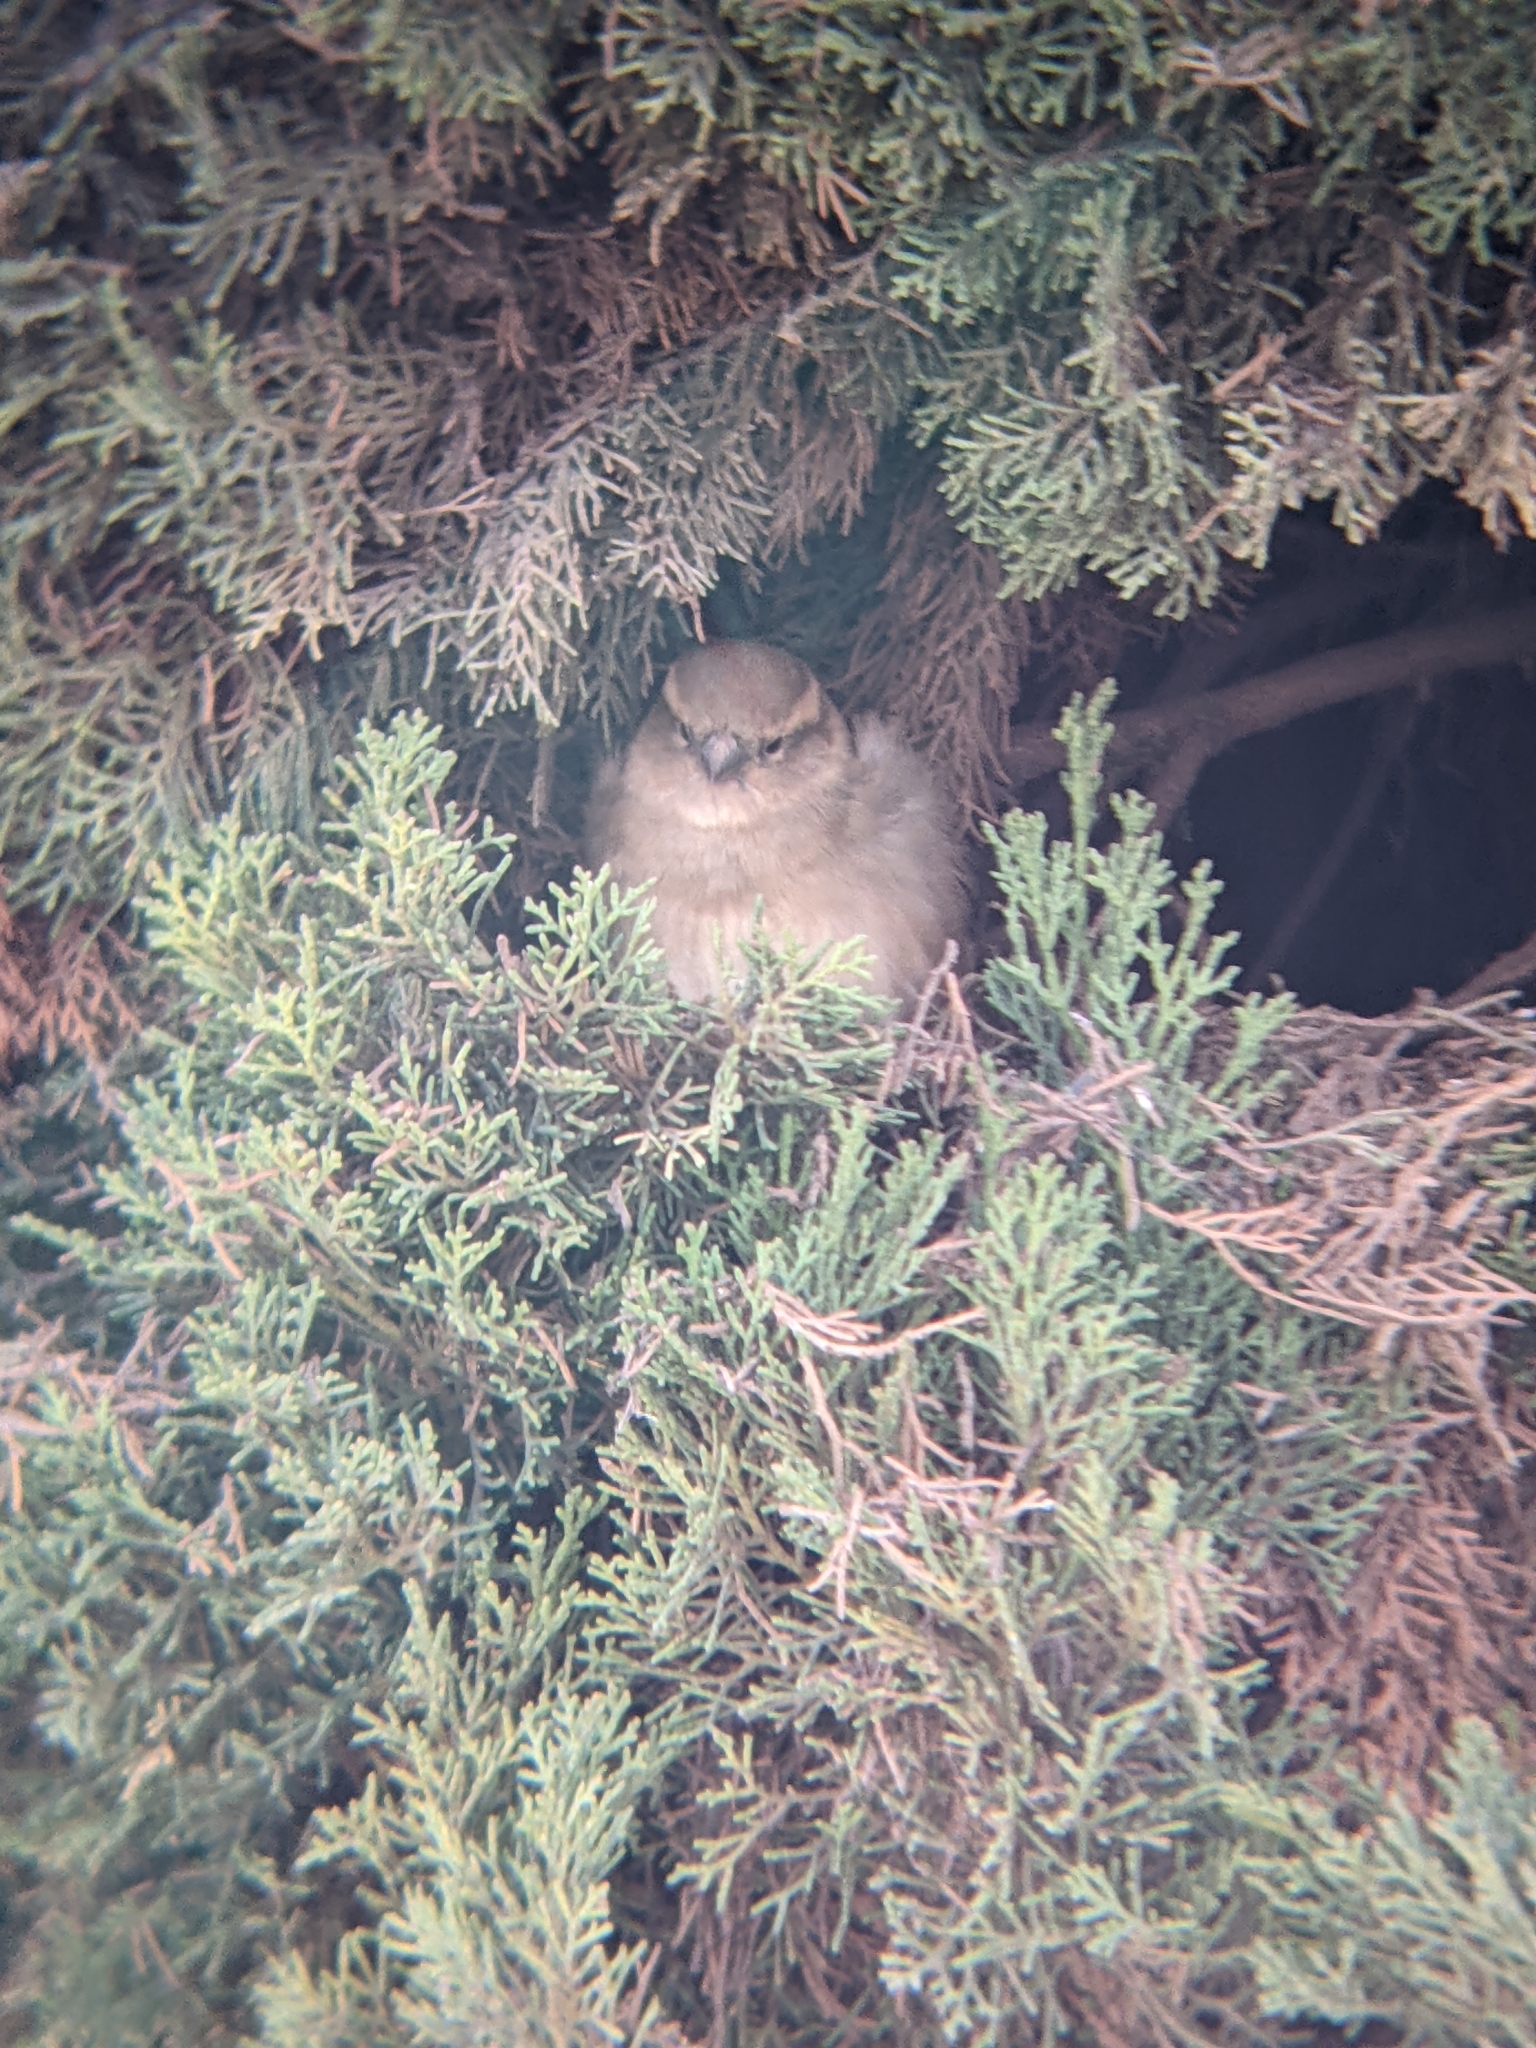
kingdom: Animalia
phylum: Chordata
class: Aves
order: Passeriformes
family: Passeridae
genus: Passer
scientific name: Passer domesticus
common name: House sparrow
